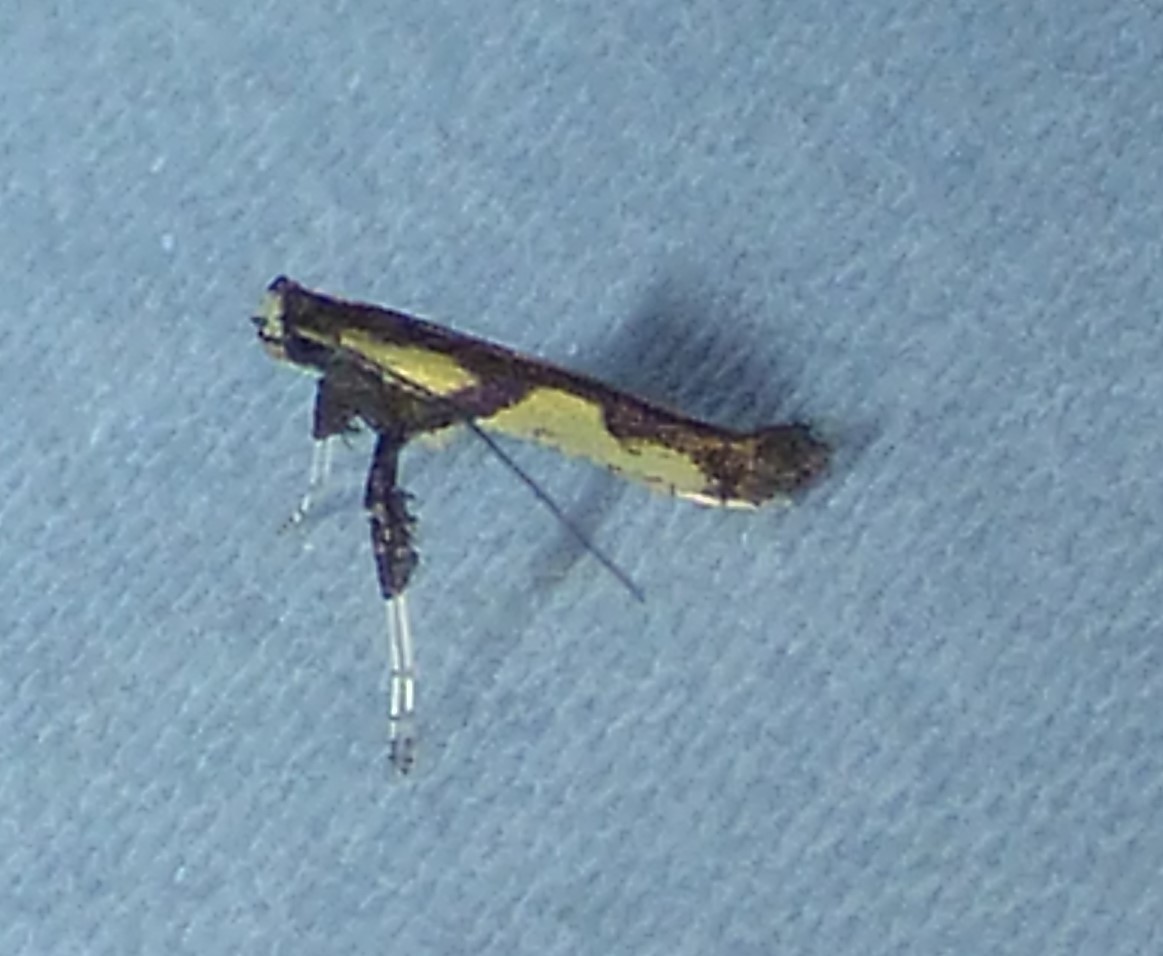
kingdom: Animalia
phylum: Arthropoda
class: Insecta
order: Lepidoptera
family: Gracillariidae
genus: Caloptilia
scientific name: Caloptilia blandella
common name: Walnut caloptilia moth
